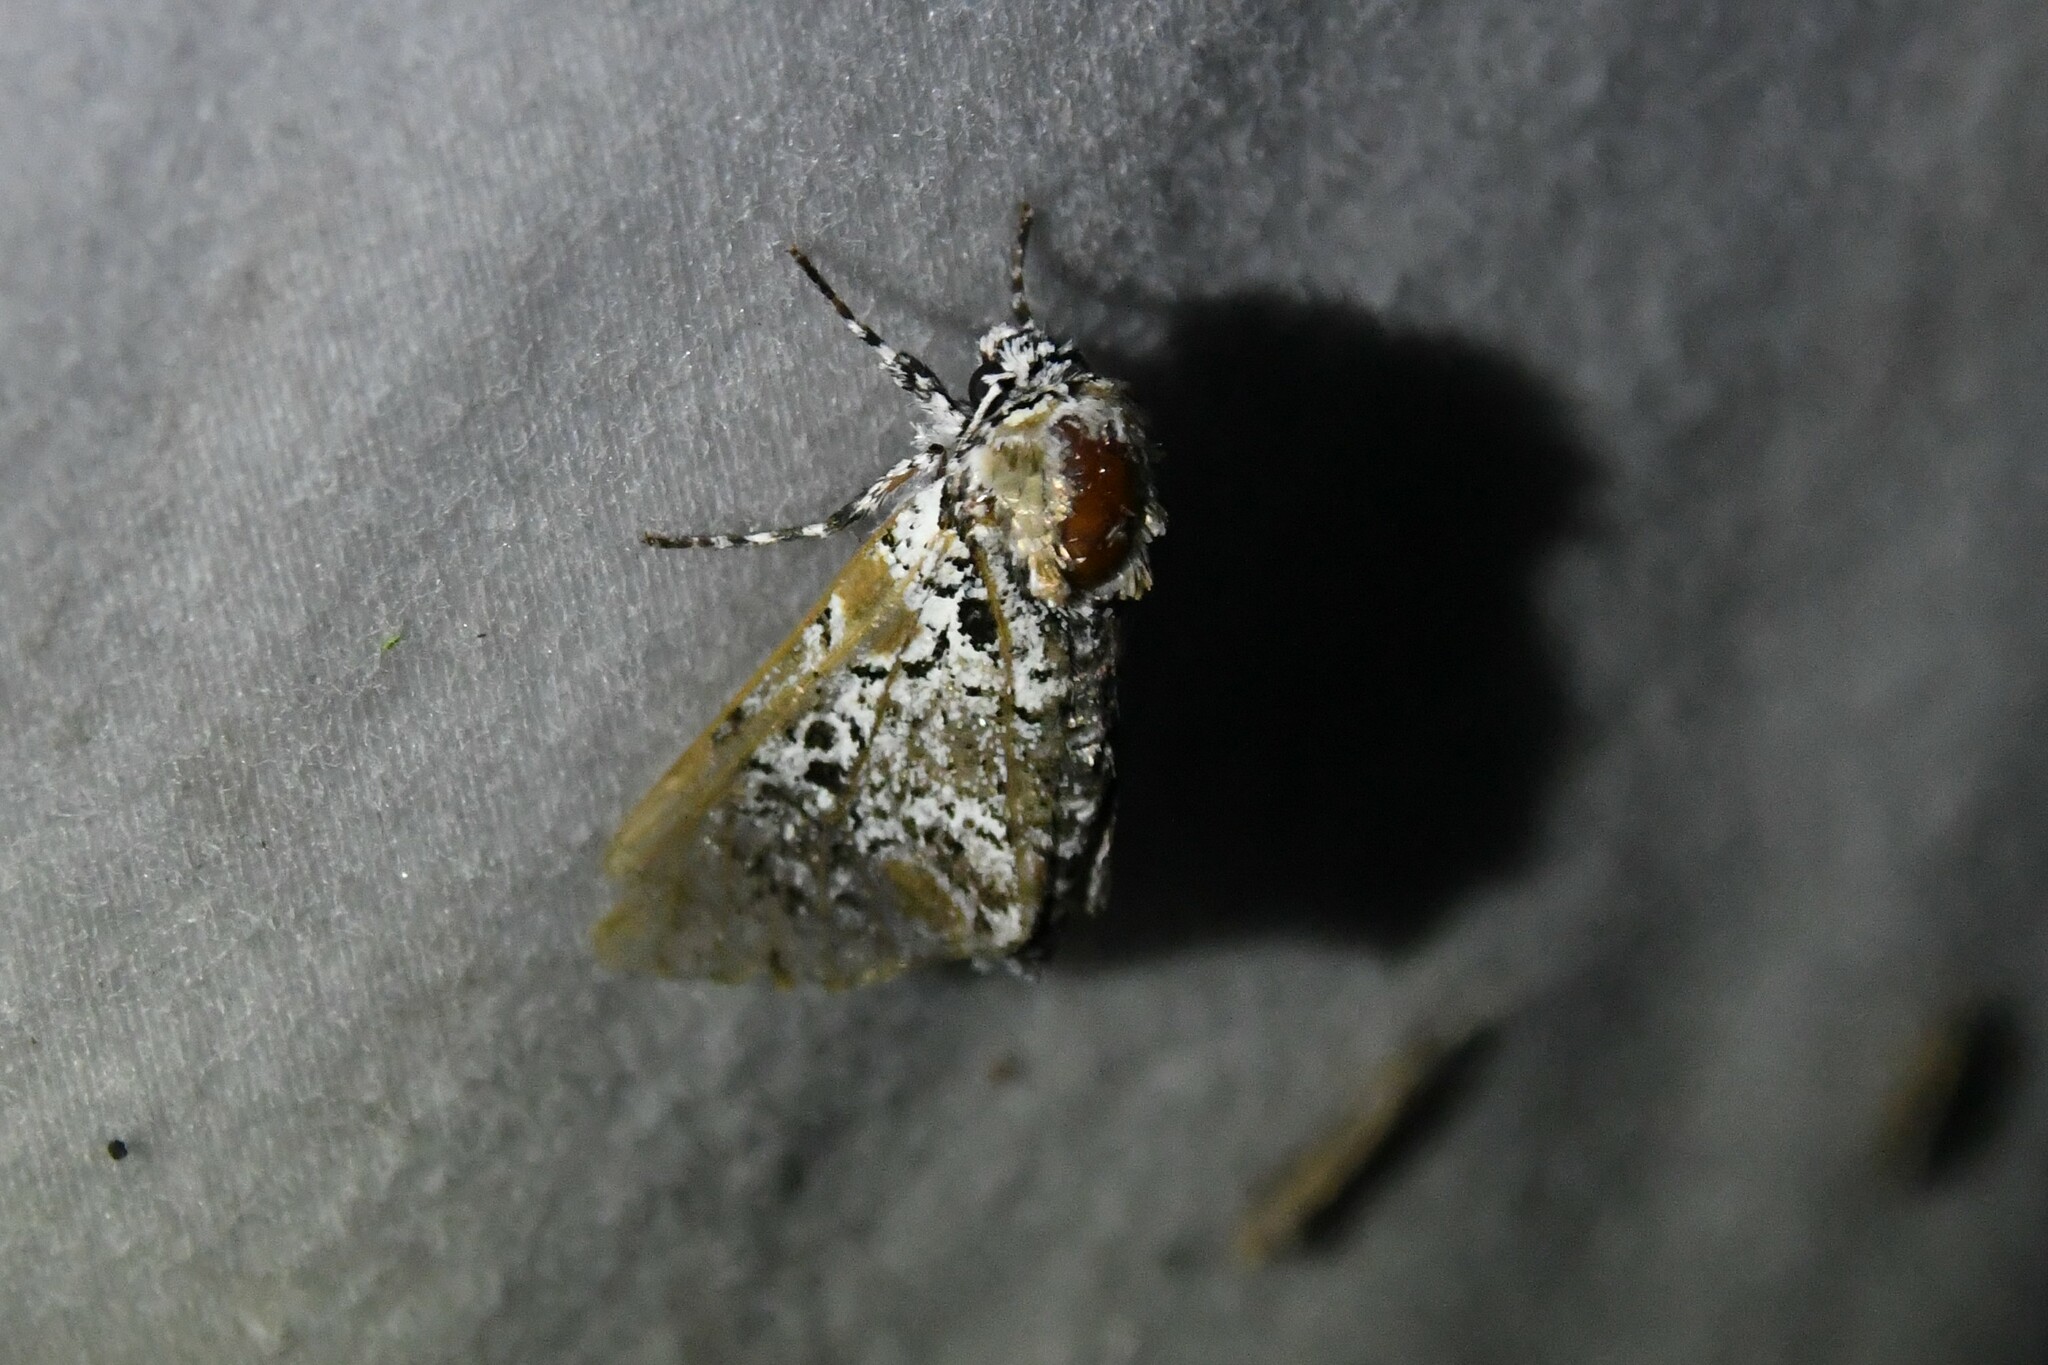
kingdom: Animalia
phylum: Arthropoda
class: Insecta
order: Lepidoptera
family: Noctuidae
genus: Harrisimemna
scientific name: Harrisimemna trisignata
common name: Harris threespot
